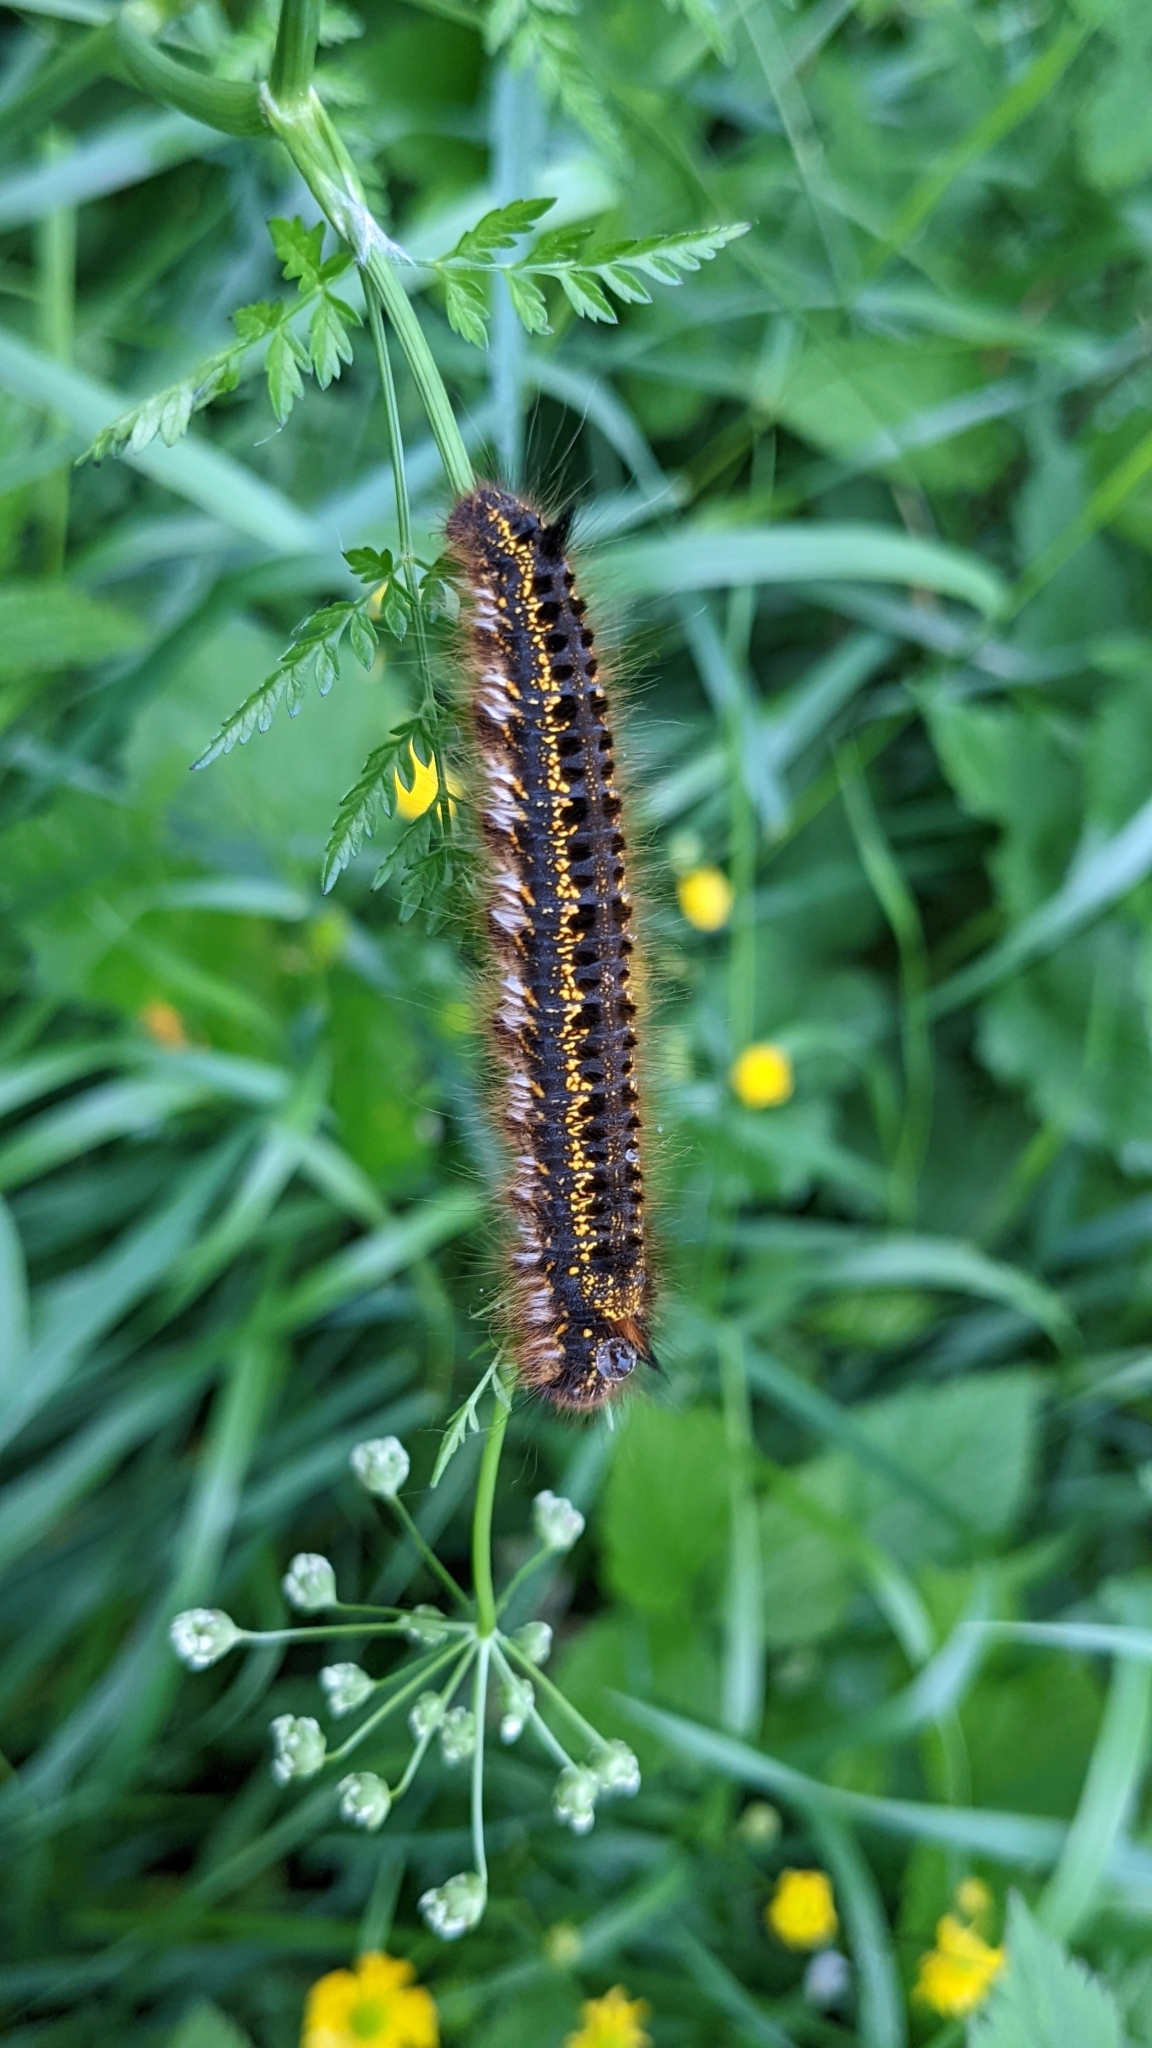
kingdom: Animalia
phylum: Arthropoda
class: Insecta
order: Lepidoptera
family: Lasiocampidae
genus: Euthrix
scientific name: Euthrix potatoria
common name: Drinker
